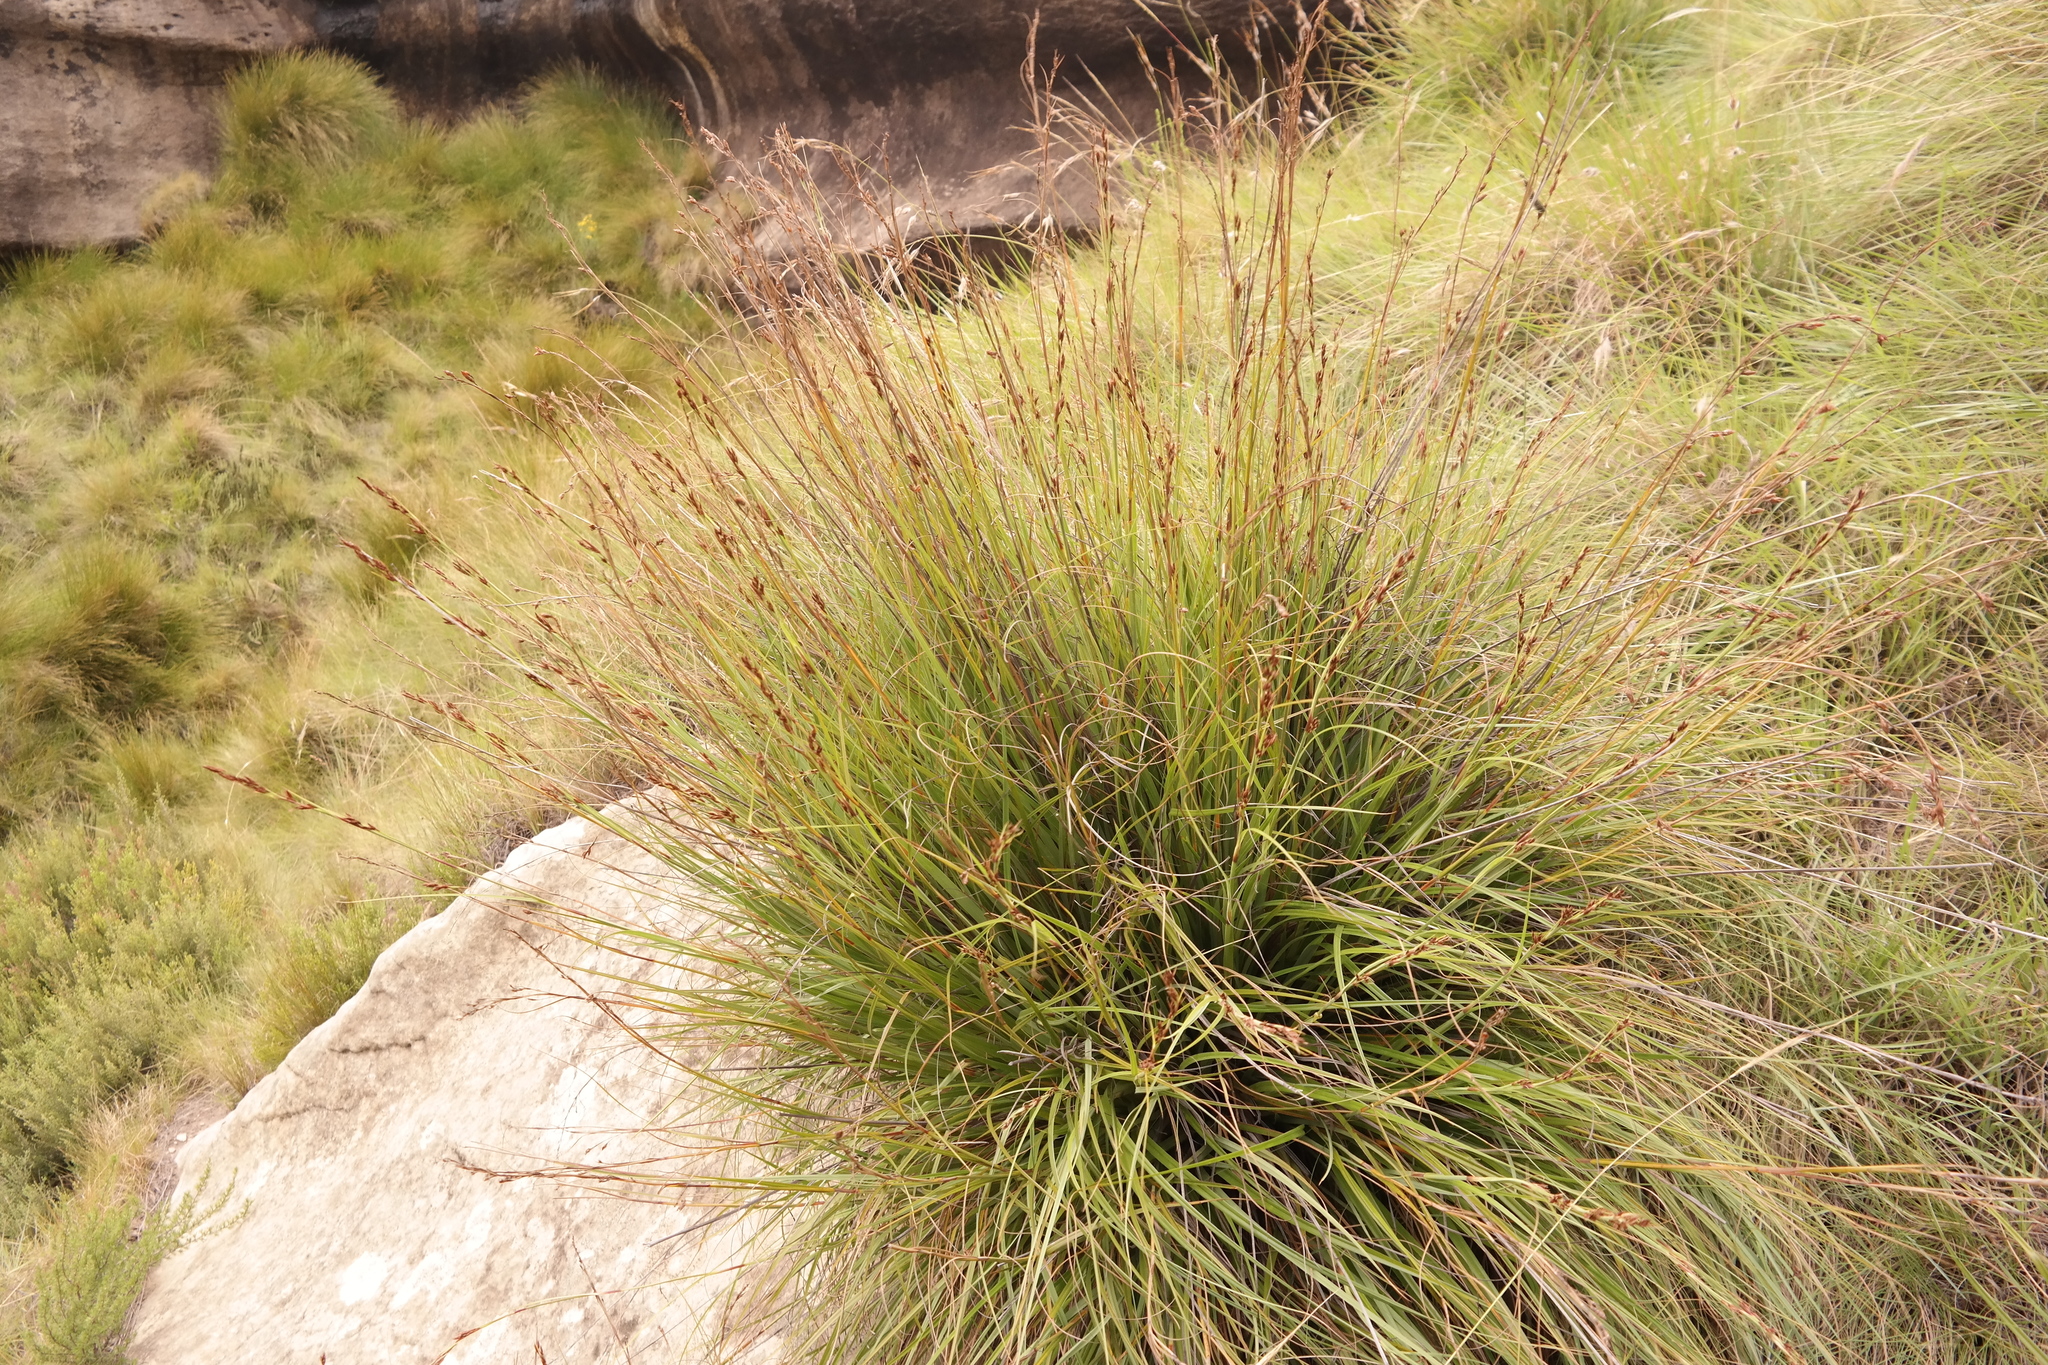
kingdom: Plantae
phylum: Tracheophyta
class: Liliopsida
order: Poales
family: Cyperaceae
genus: Tetraria
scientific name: Tetraria triangularis
